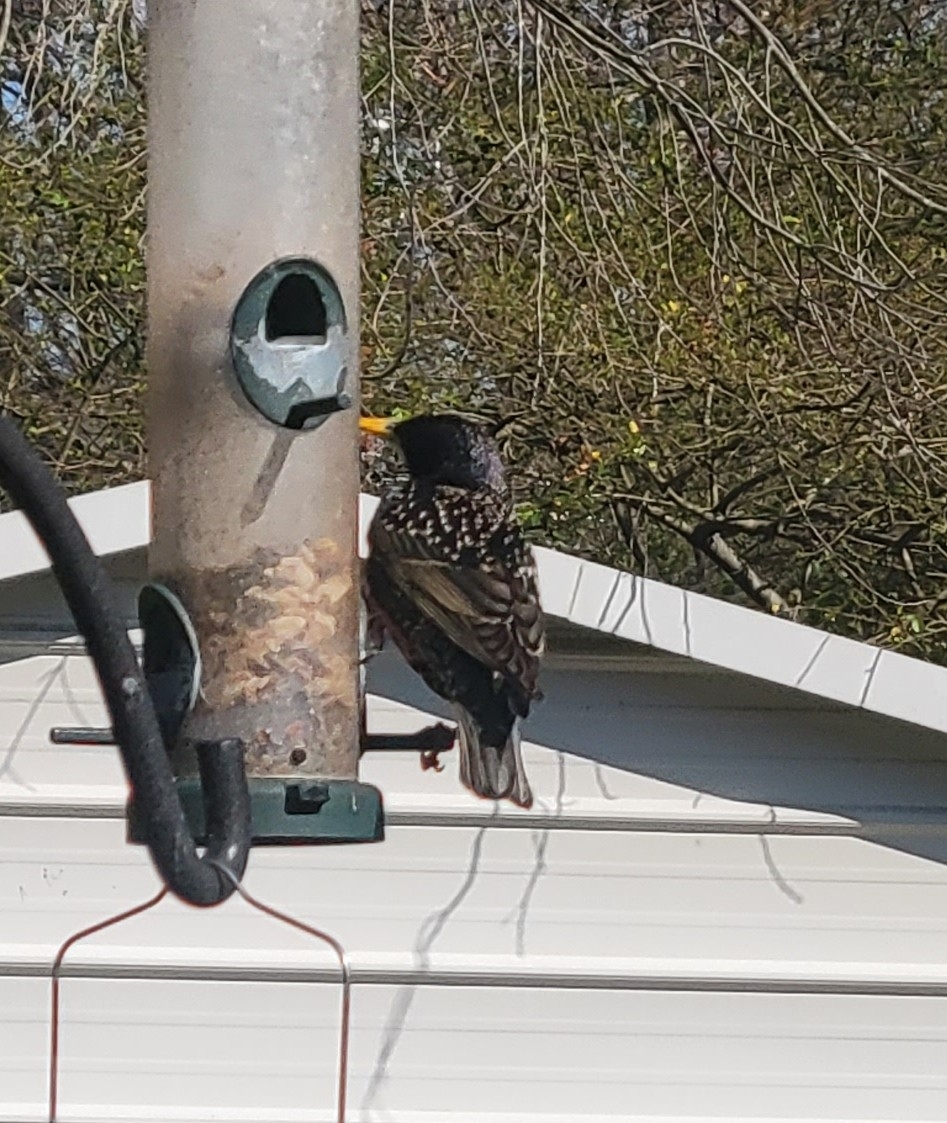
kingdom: Animalia
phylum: Chordata
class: Aves
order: Passeriformes
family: Sturnidae
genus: Sturnus
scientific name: Sturnus vulgaris
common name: Common starling
